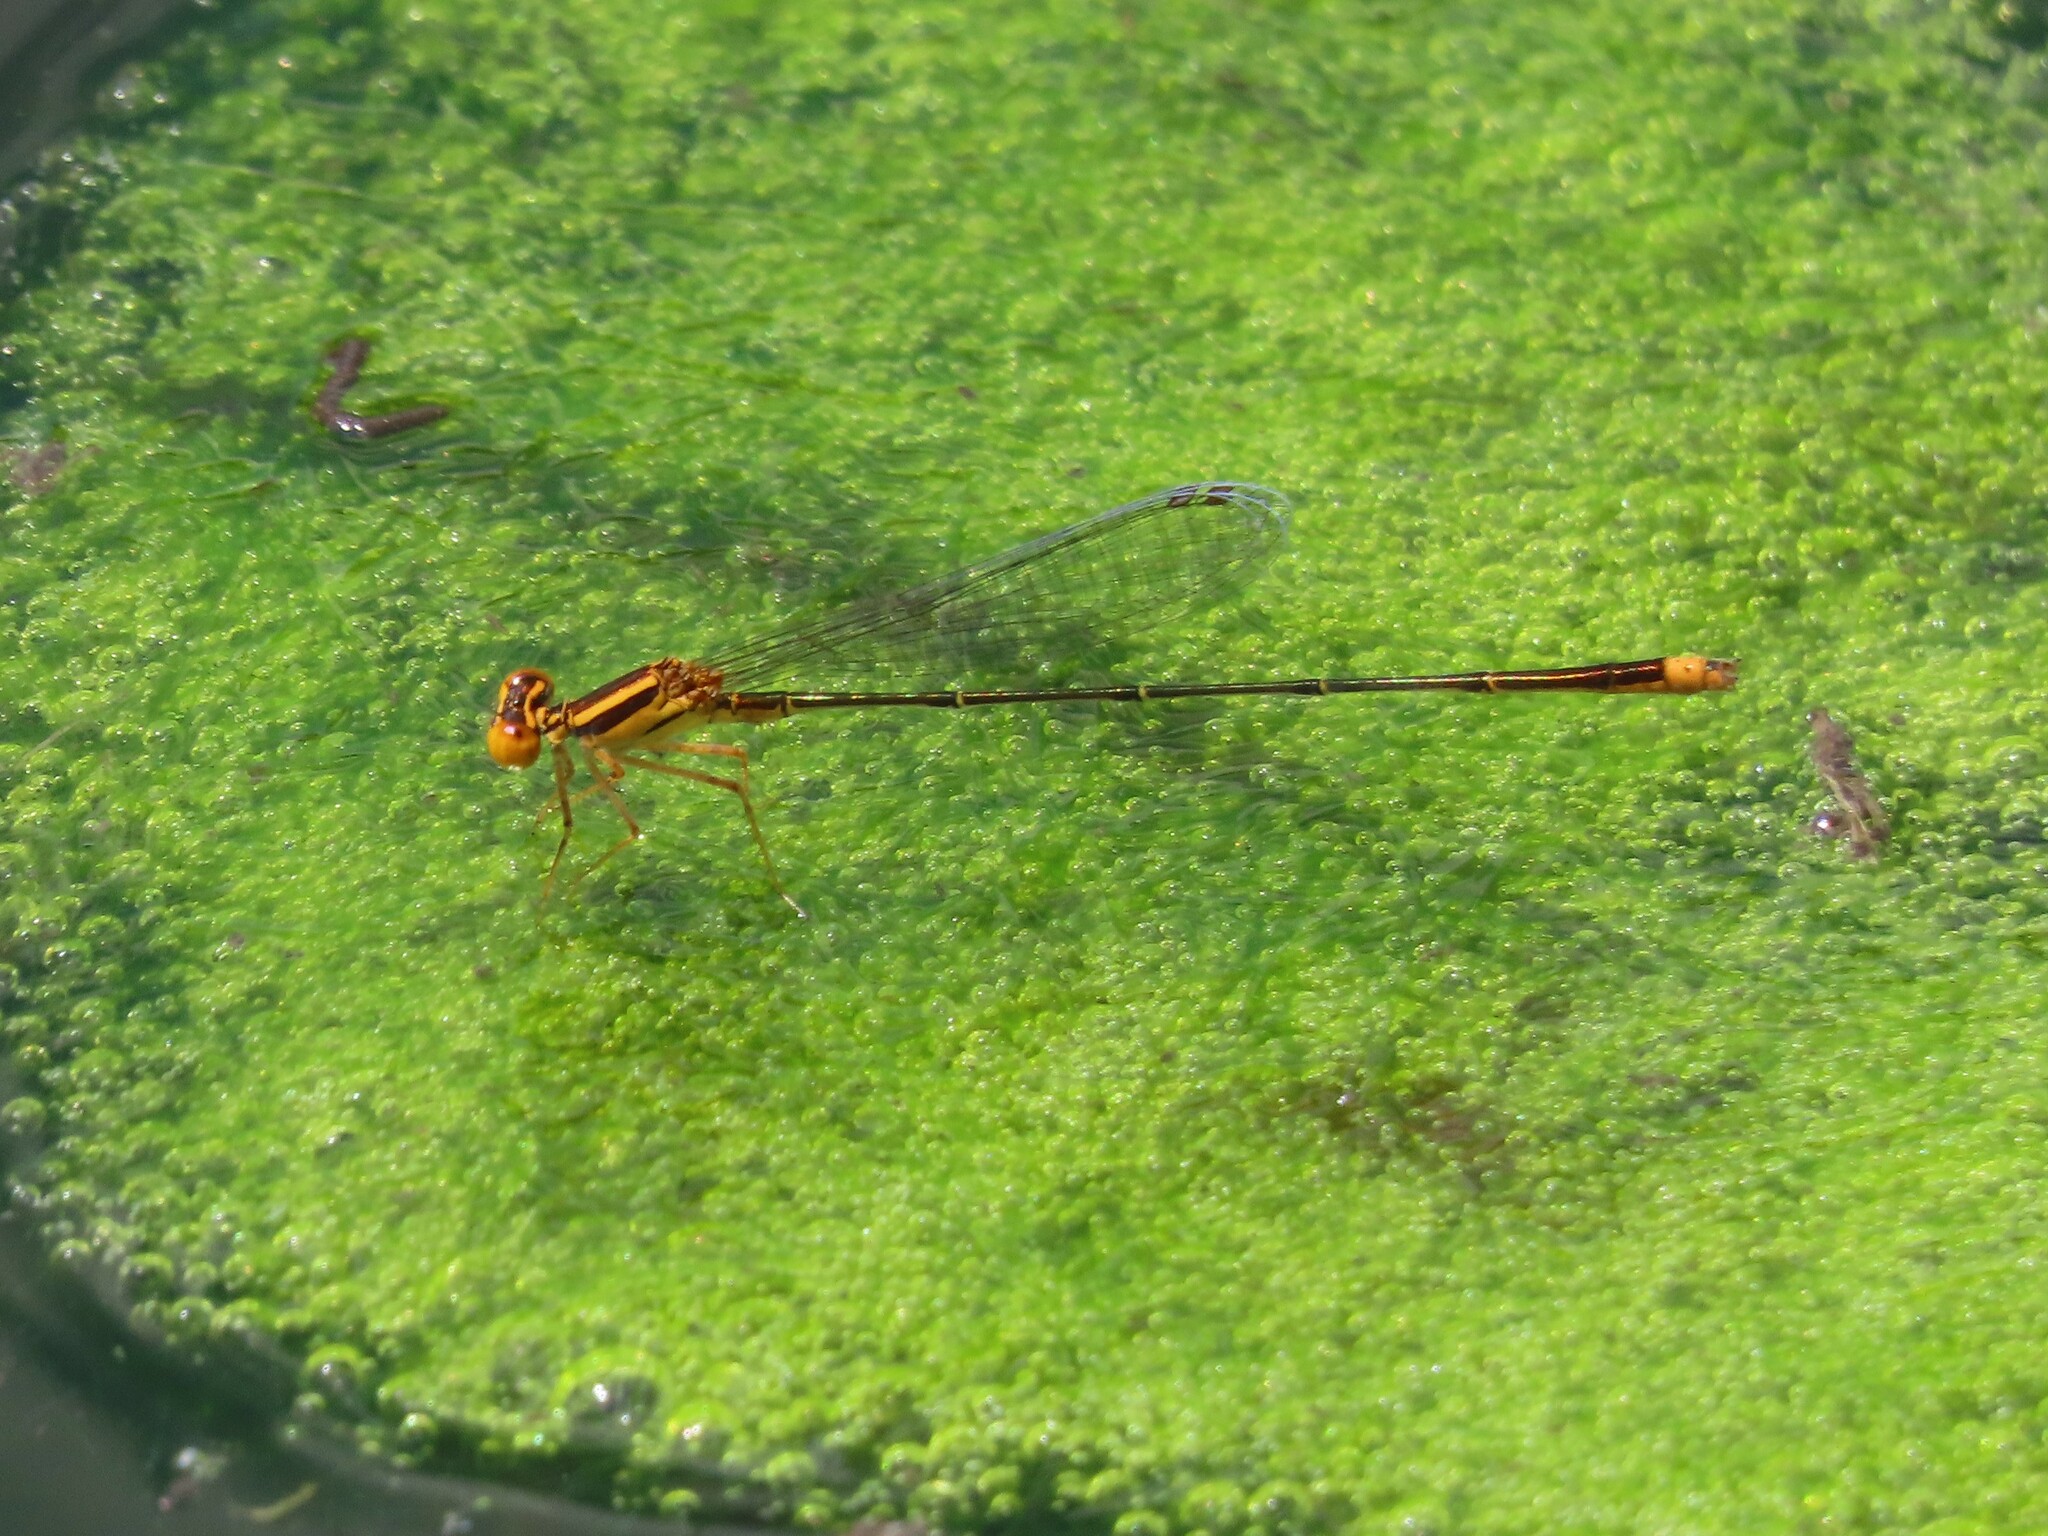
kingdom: Animalia
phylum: Arthropoda
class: Insecta
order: Odonata
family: Coenagrionidae
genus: Enallagma
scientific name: Enallagma pollutum
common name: Florida bluet
